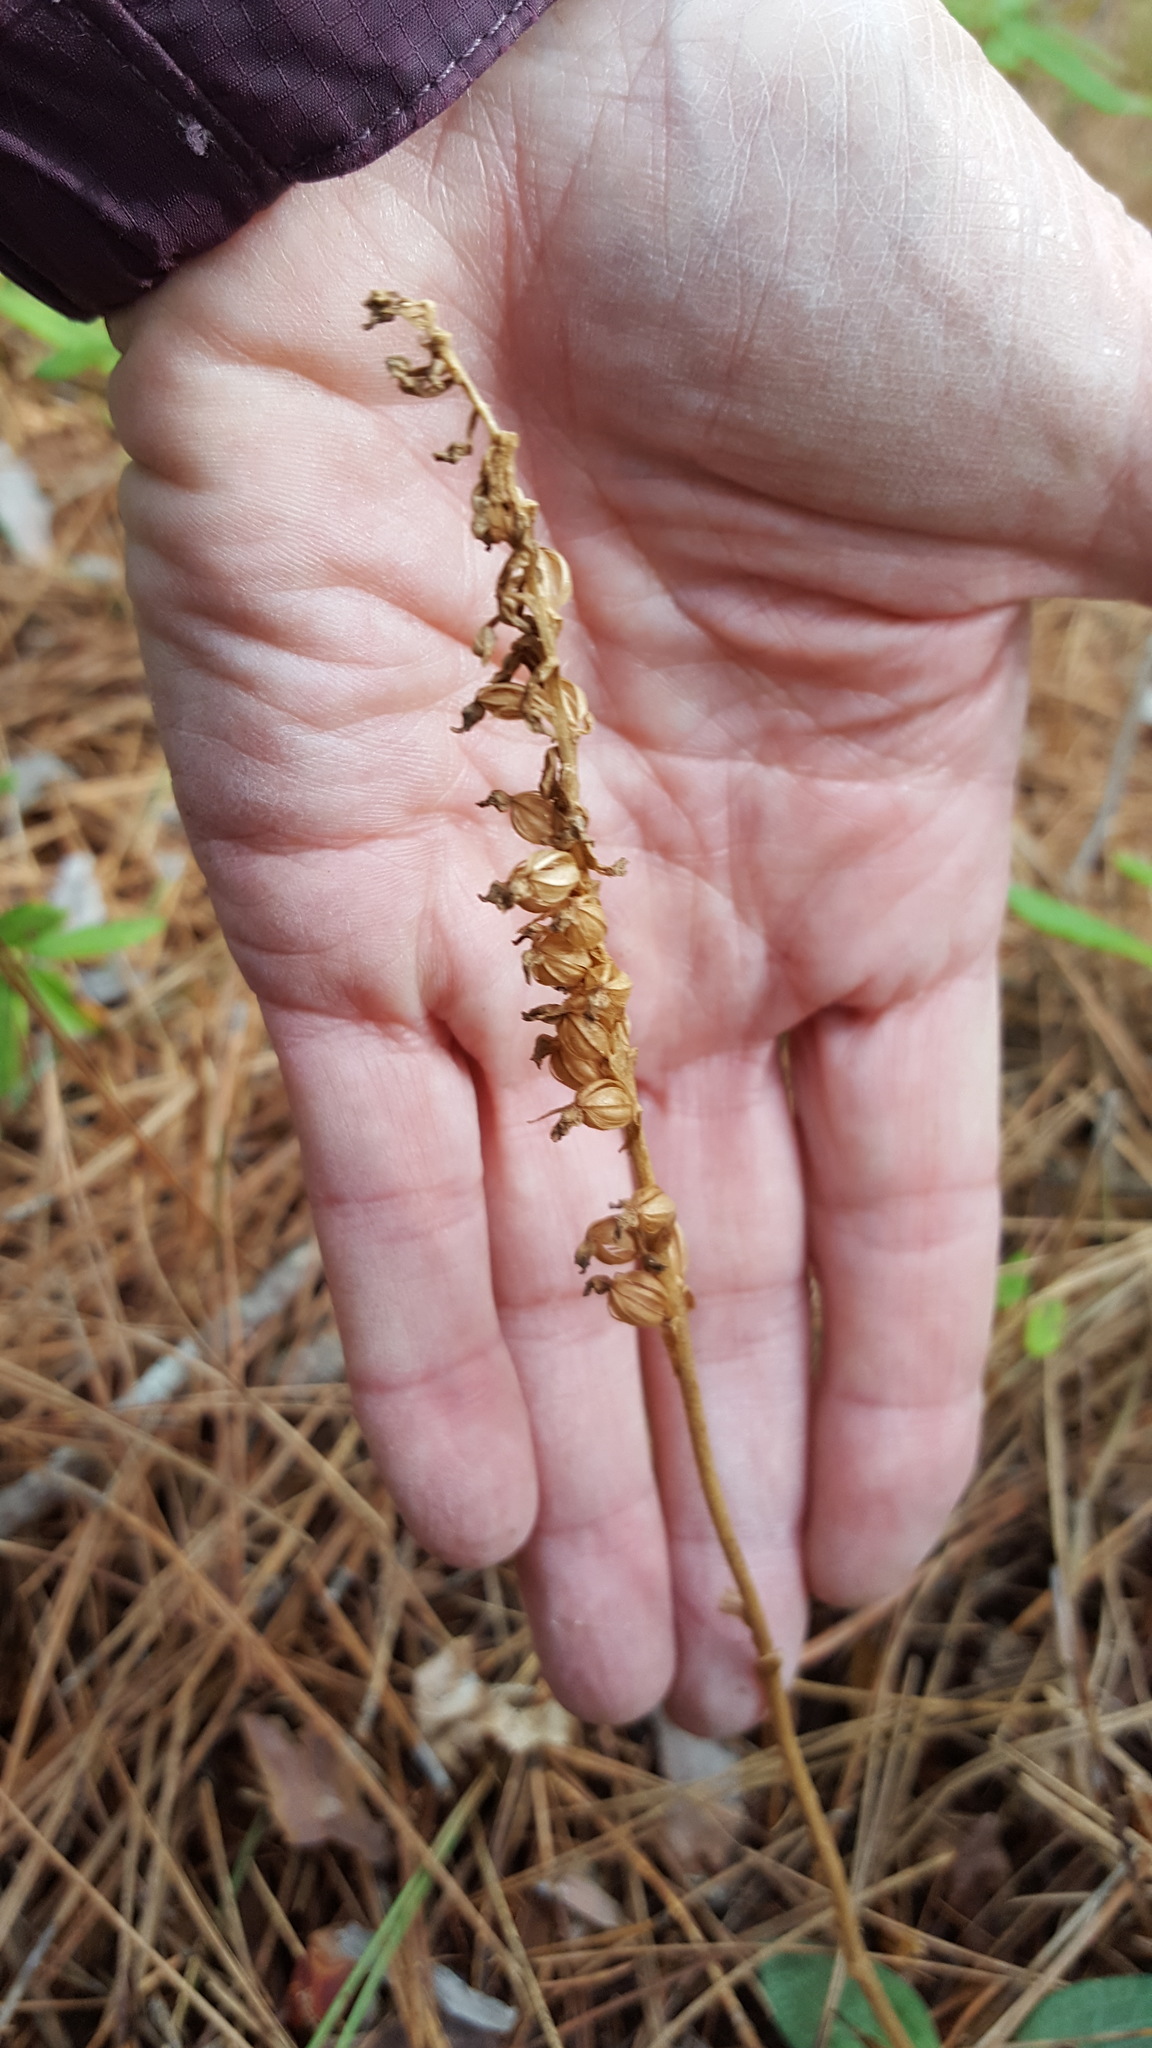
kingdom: Plantae
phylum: Tracheophyta
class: Liliopsida
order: Asparagales
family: Orchidaceae
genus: Goodyera
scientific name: Goodyera tesselata
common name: Checkered rattlesnake-plantain
